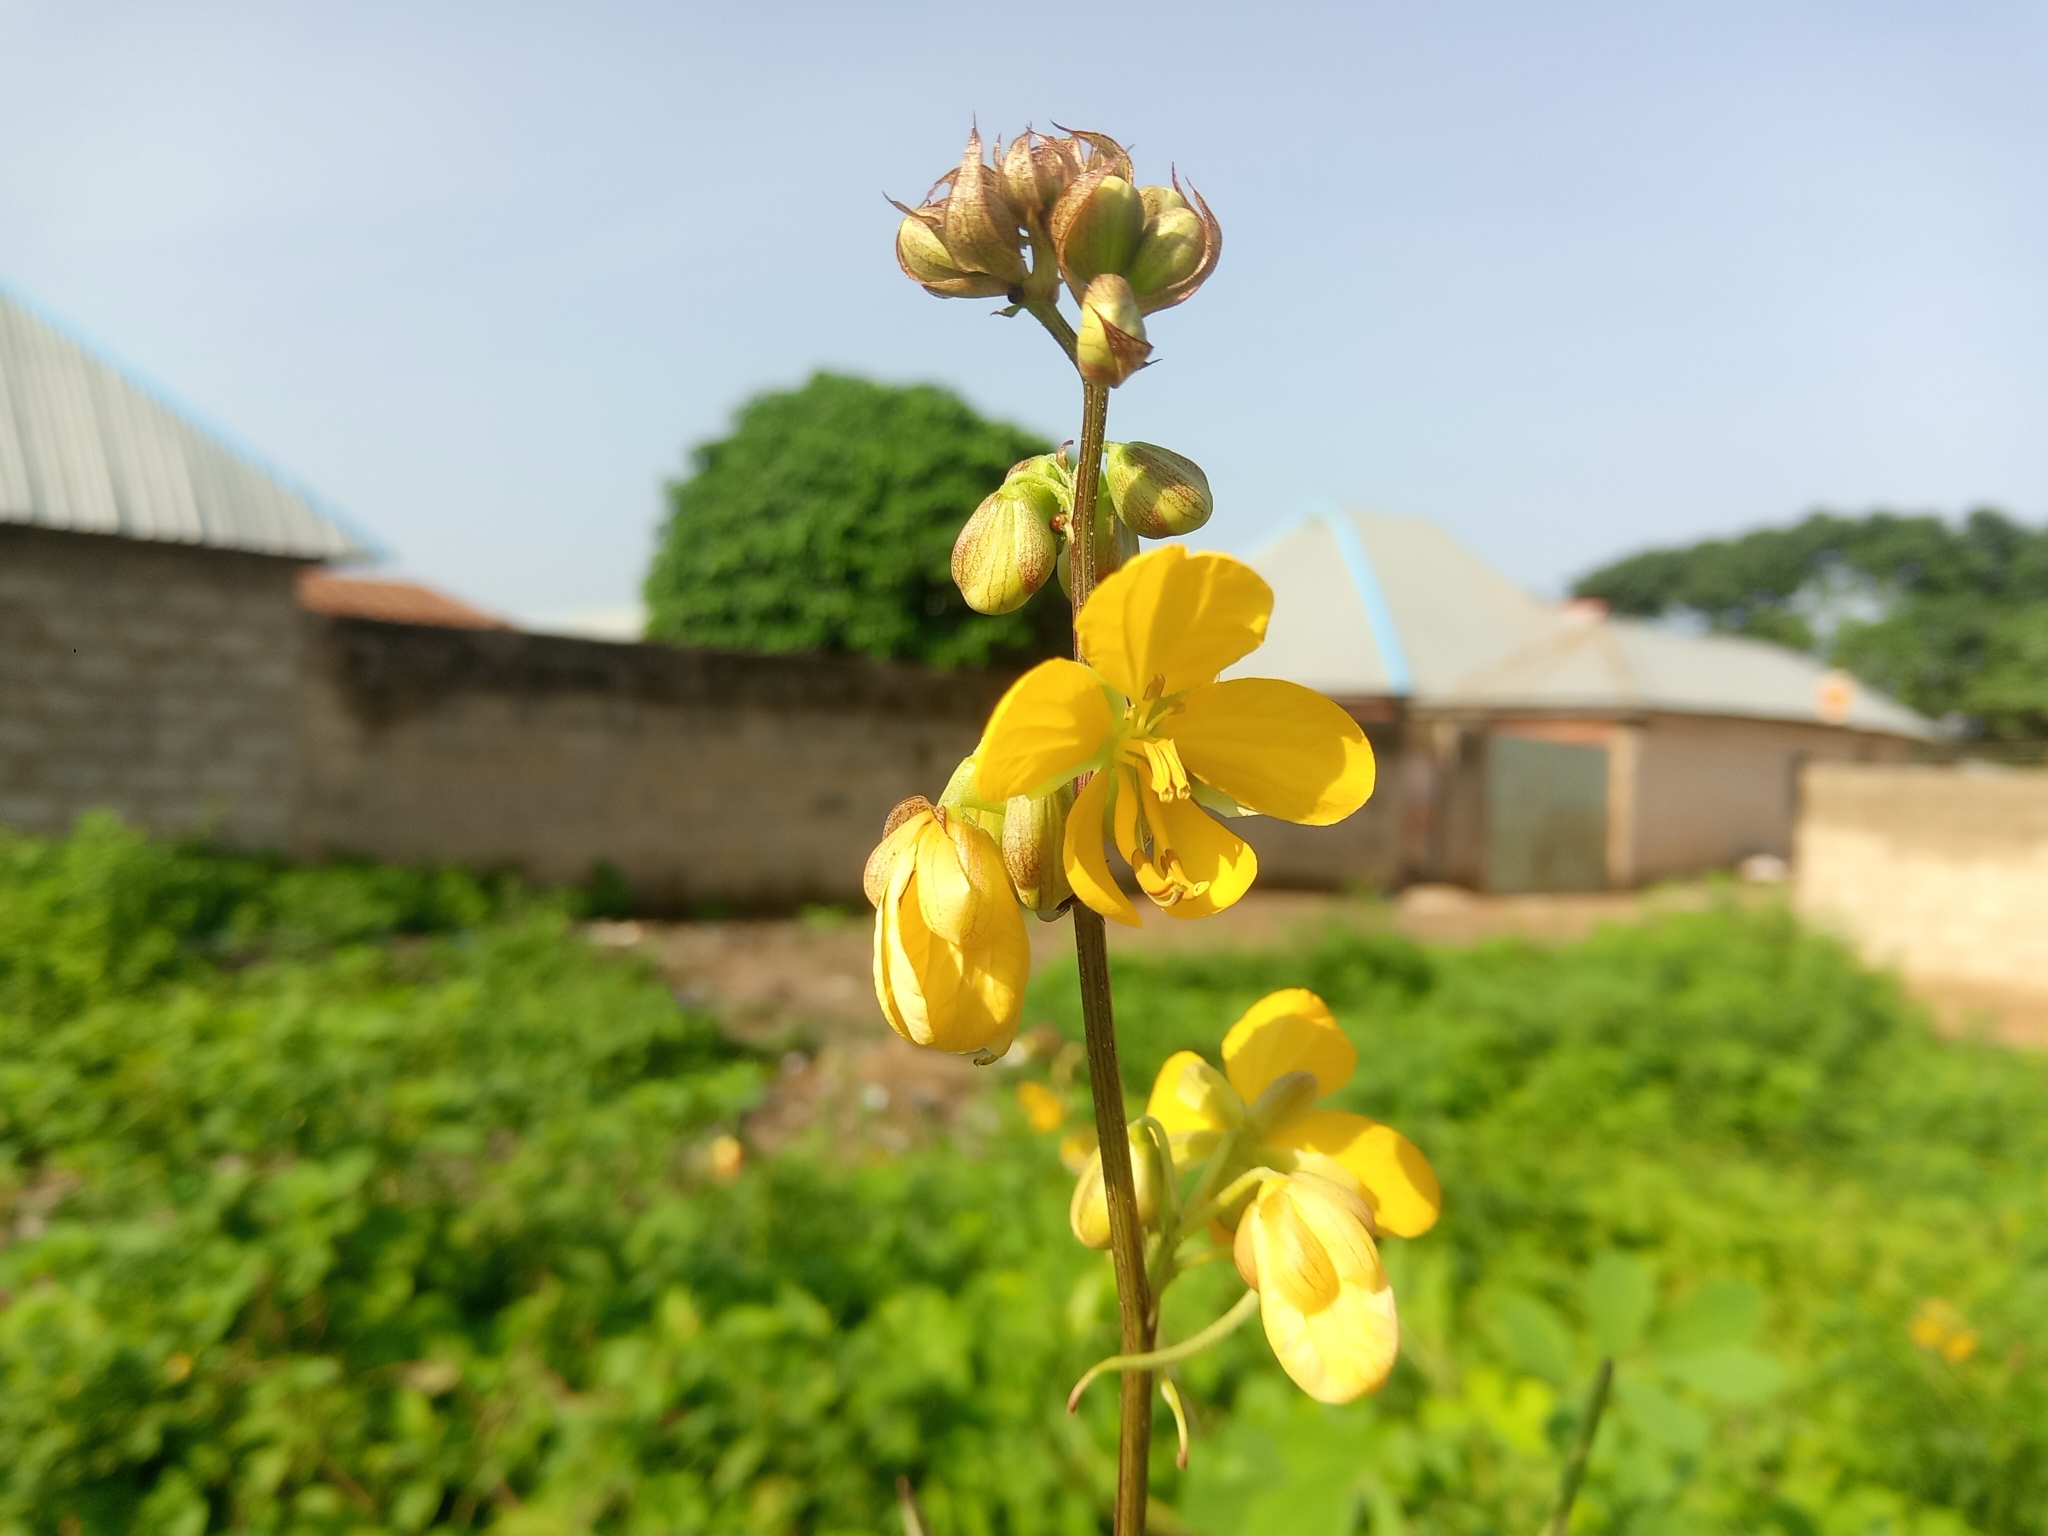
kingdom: Plantae
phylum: Tracheophyta
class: Magnoliopsida
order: Fabales
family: Fabaceae
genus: Senna
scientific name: Senna occidentalis
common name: Septicweed
